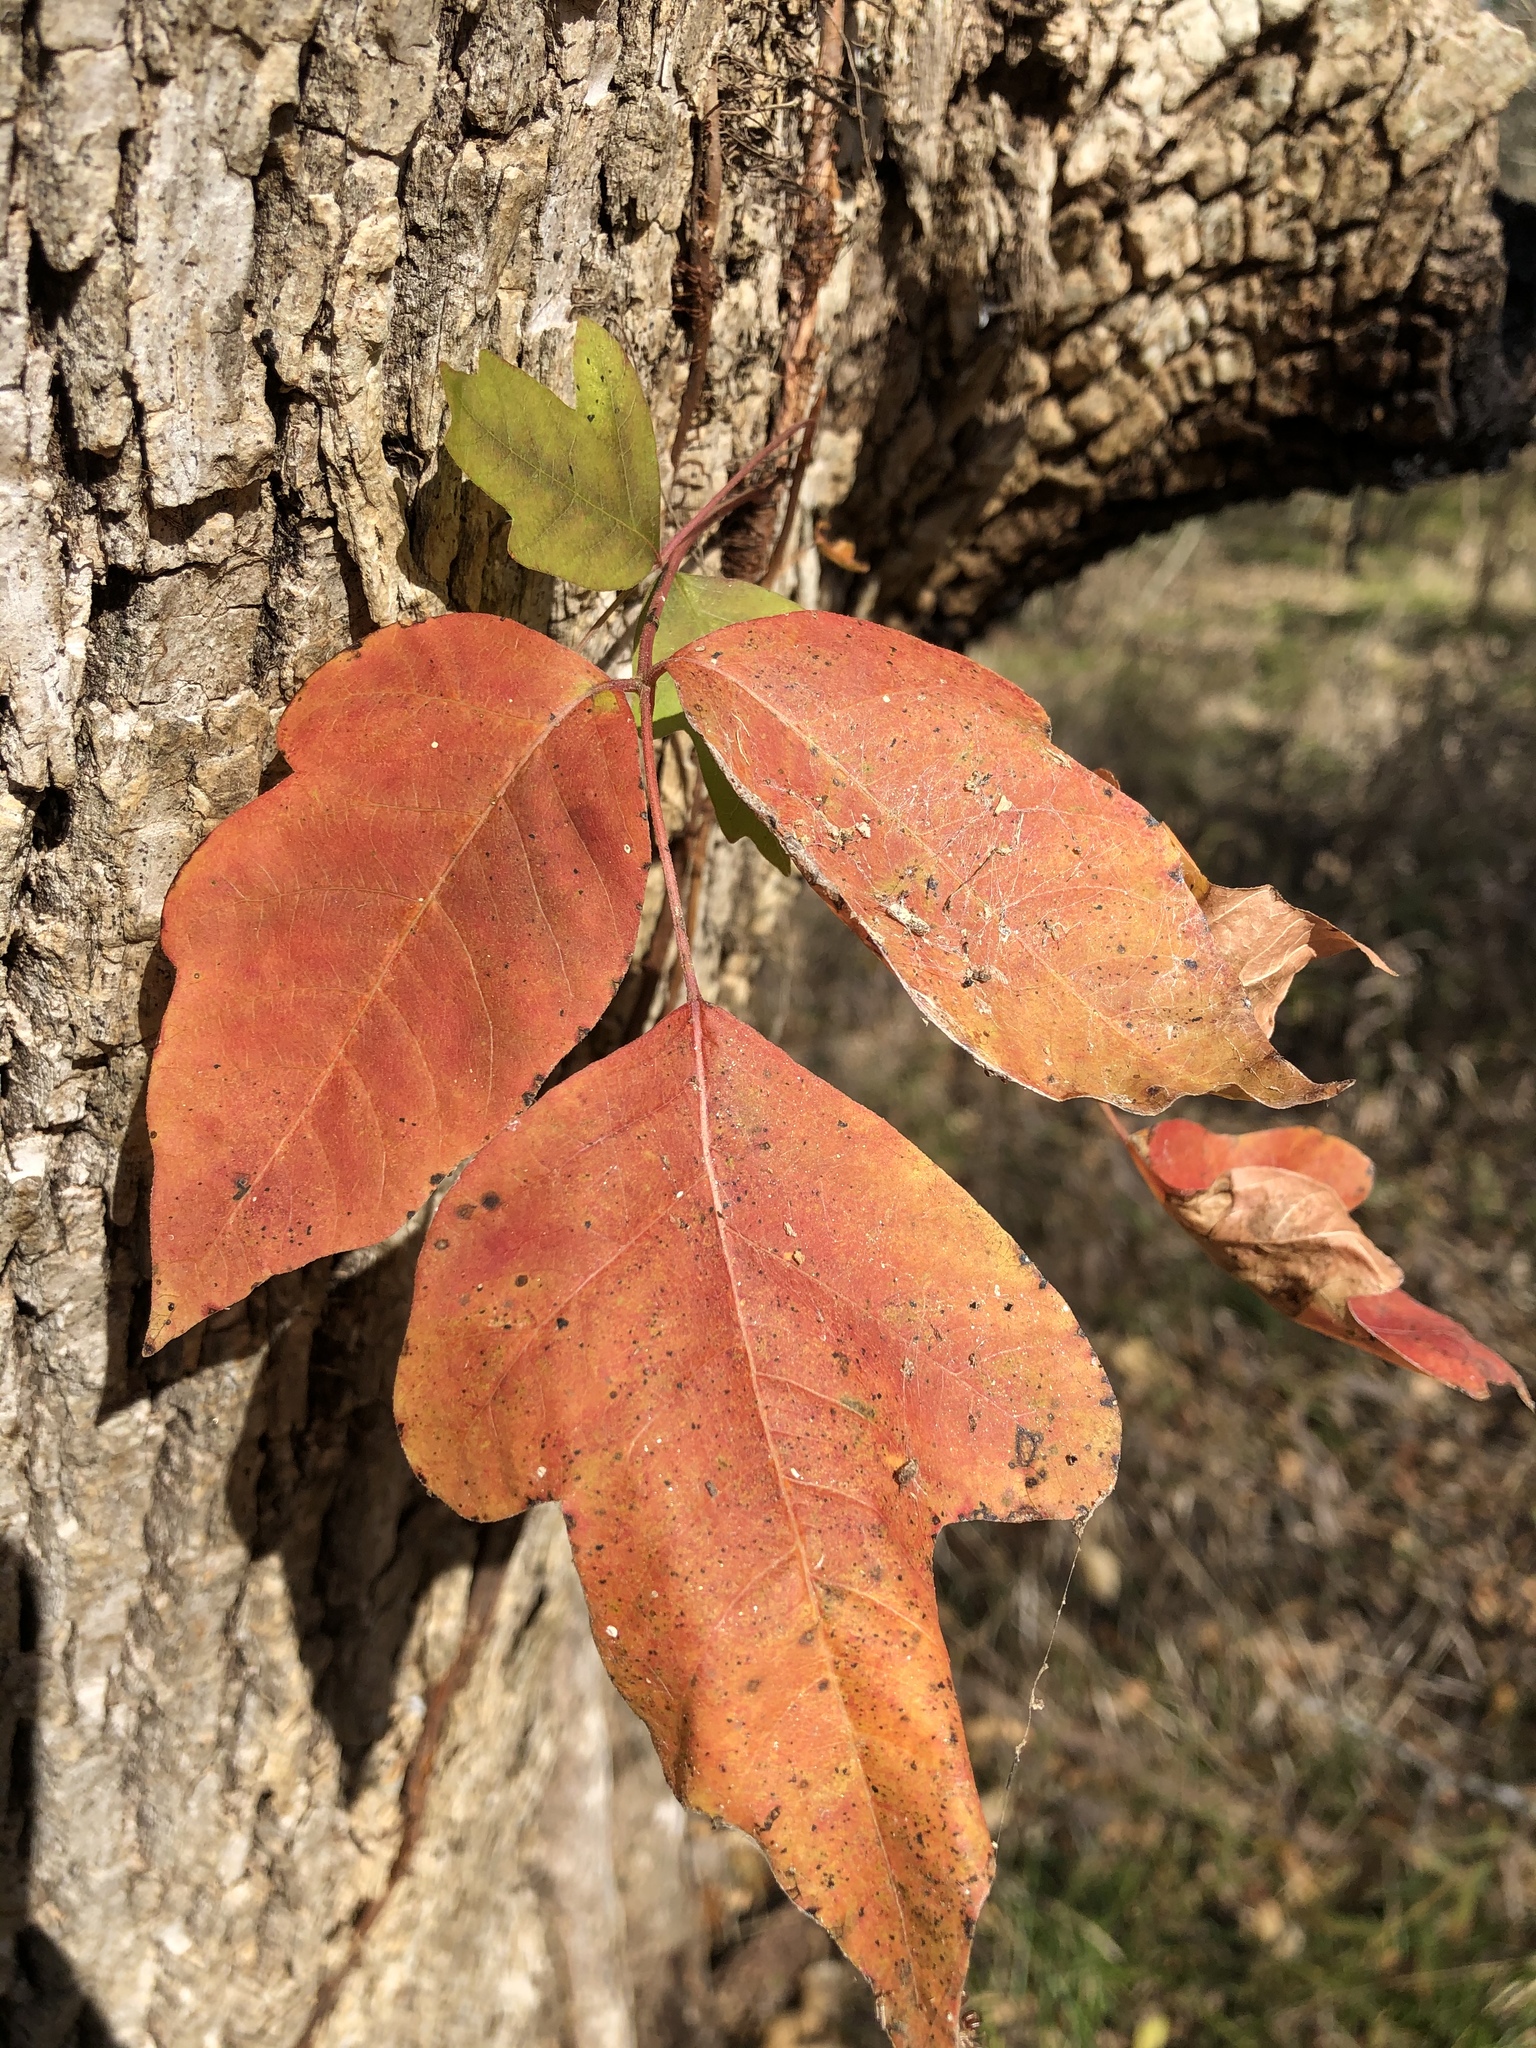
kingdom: Plantae
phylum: Tracheophyta
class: Magnoliopsida
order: Sapindales
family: Anacardiaceae
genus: Toxicodendron
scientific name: Toxicodendron radicans
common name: Poison ivy
